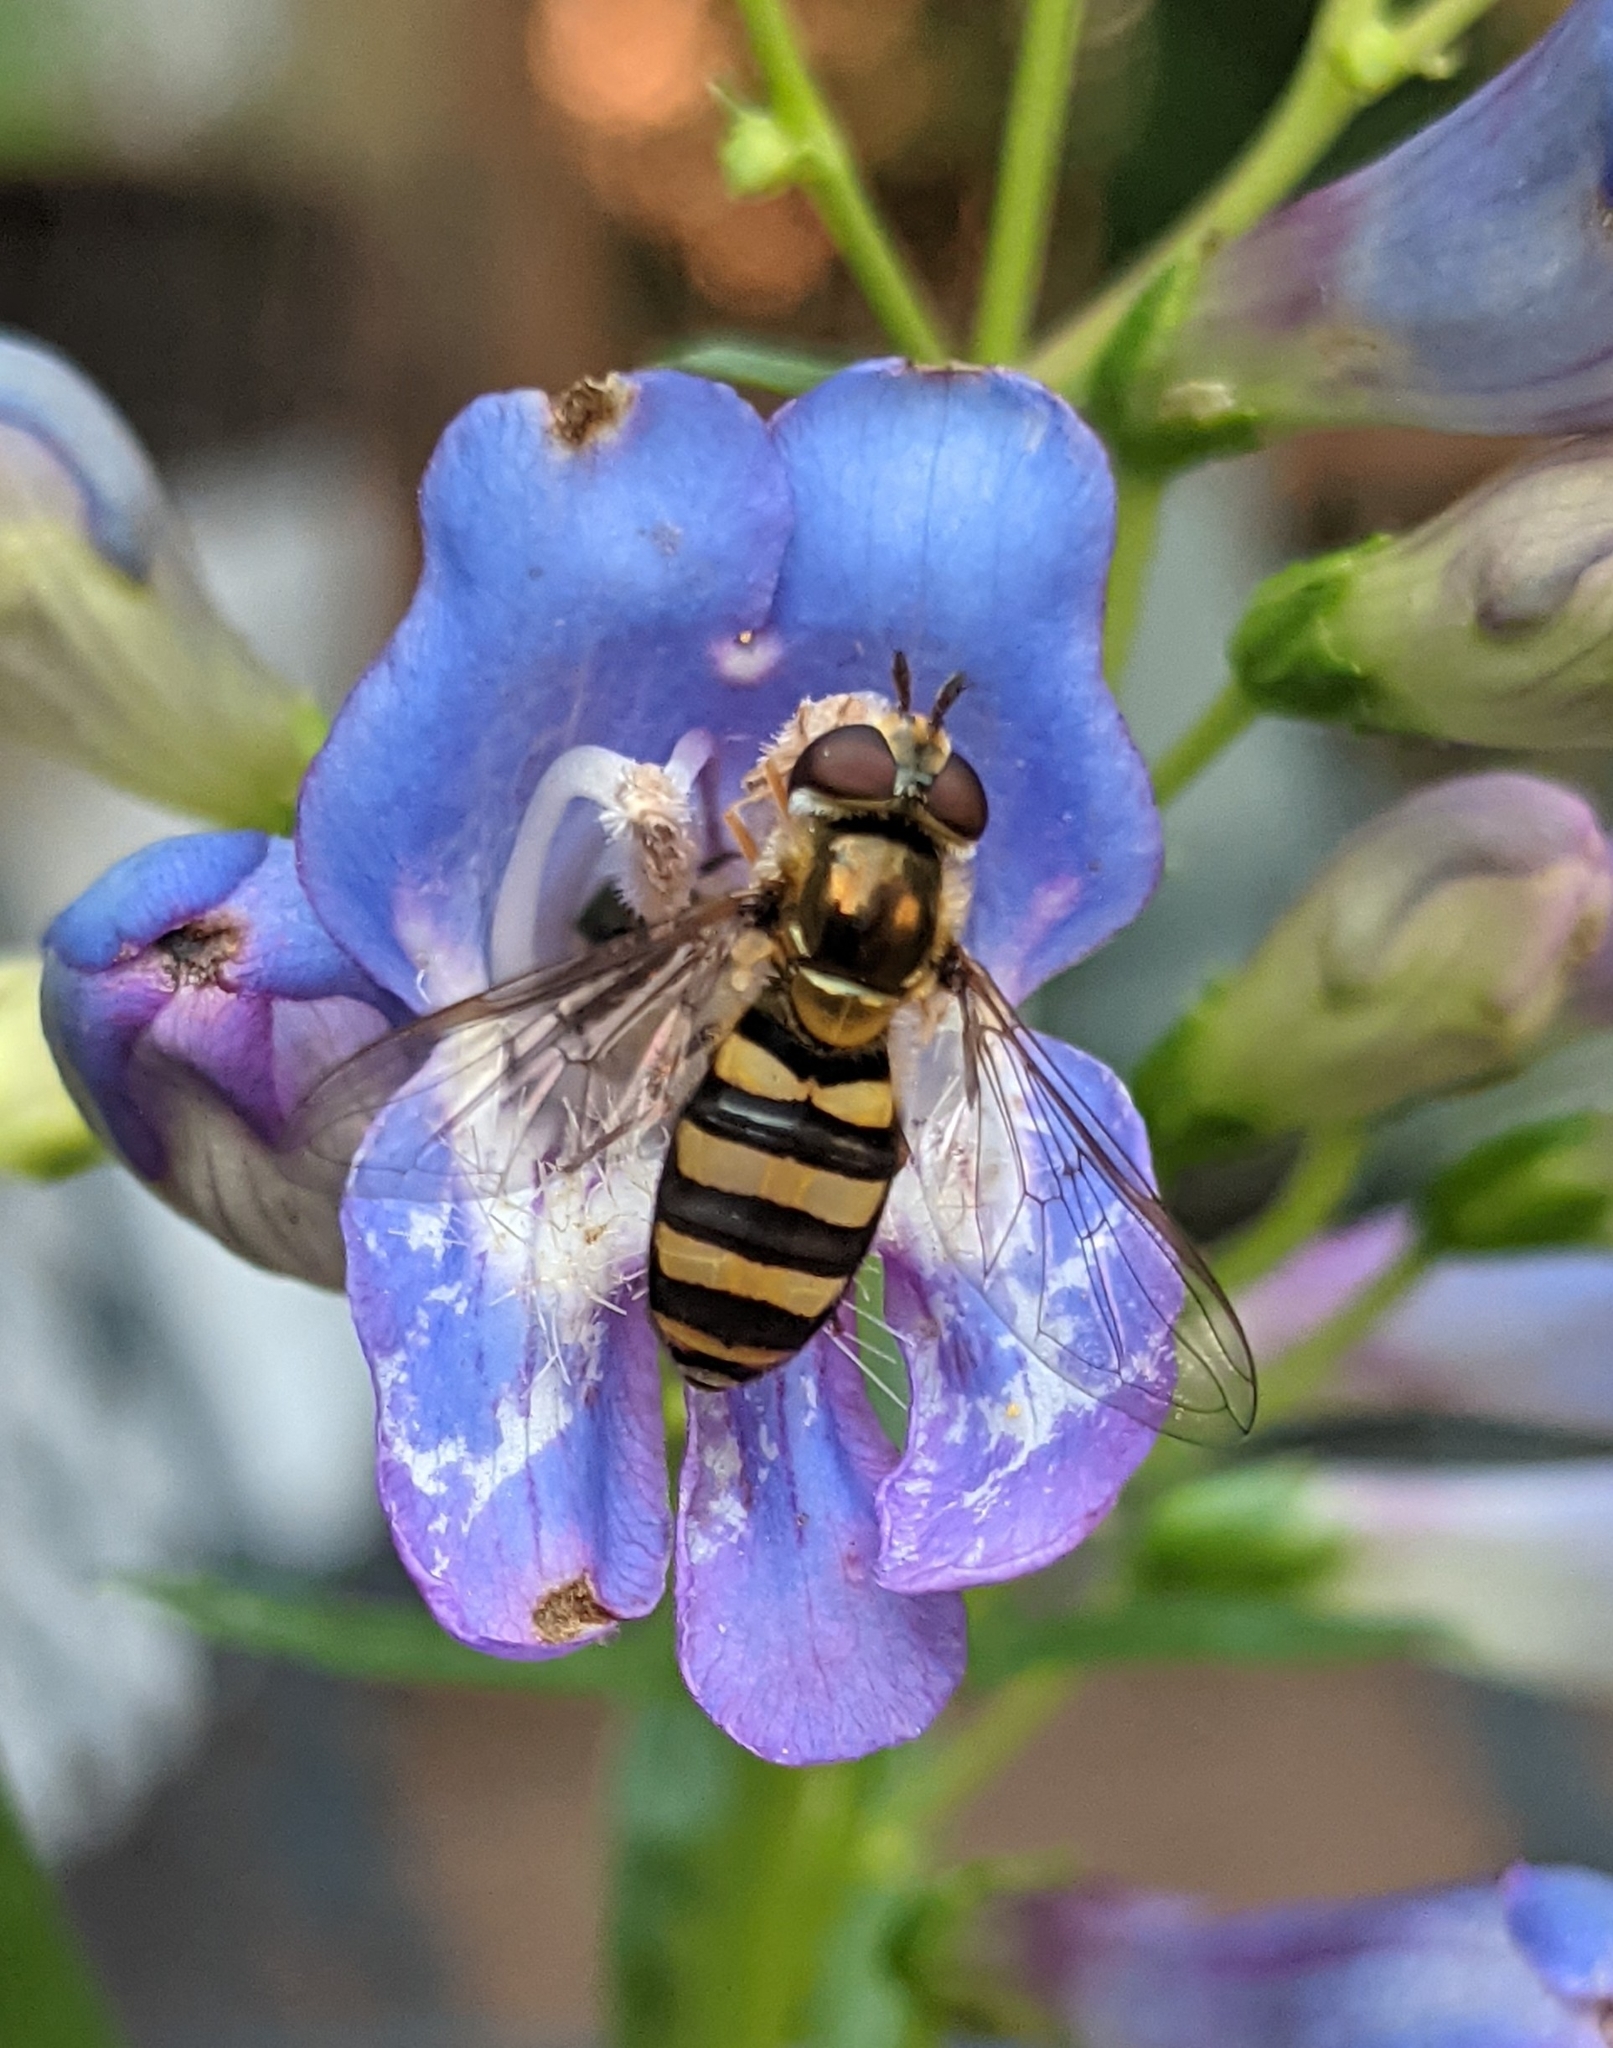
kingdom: Animalia
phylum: Arthropoda
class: Insecta
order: Diptera
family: Syrphidae
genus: Eupeodes
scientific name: Eupeodes
